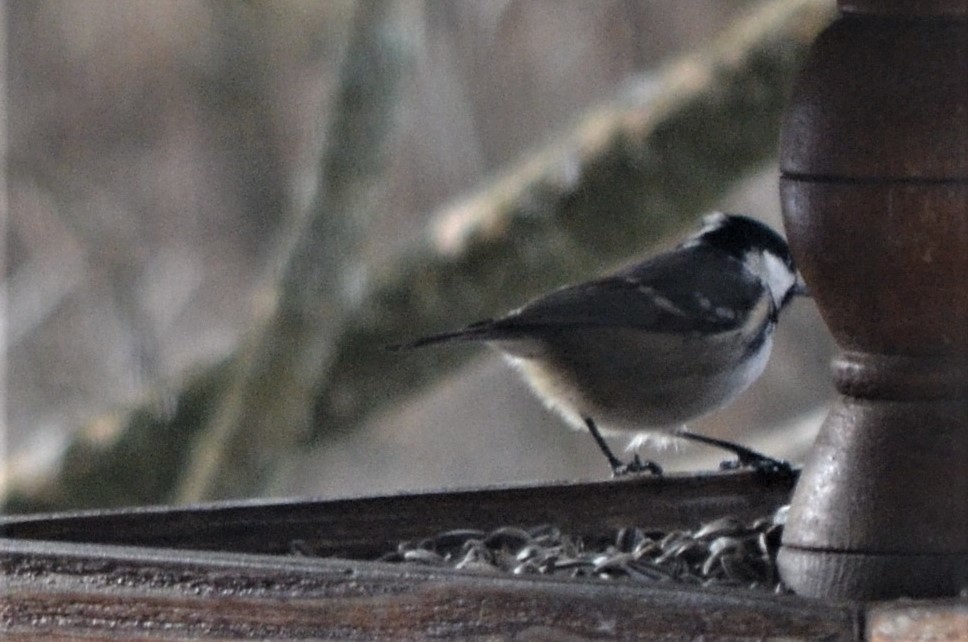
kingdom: Animalia
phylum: Chordata
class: Aves
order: Passeriformes
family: Paridae
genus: Periparus
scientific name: Periparus ater
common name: Coal tit
